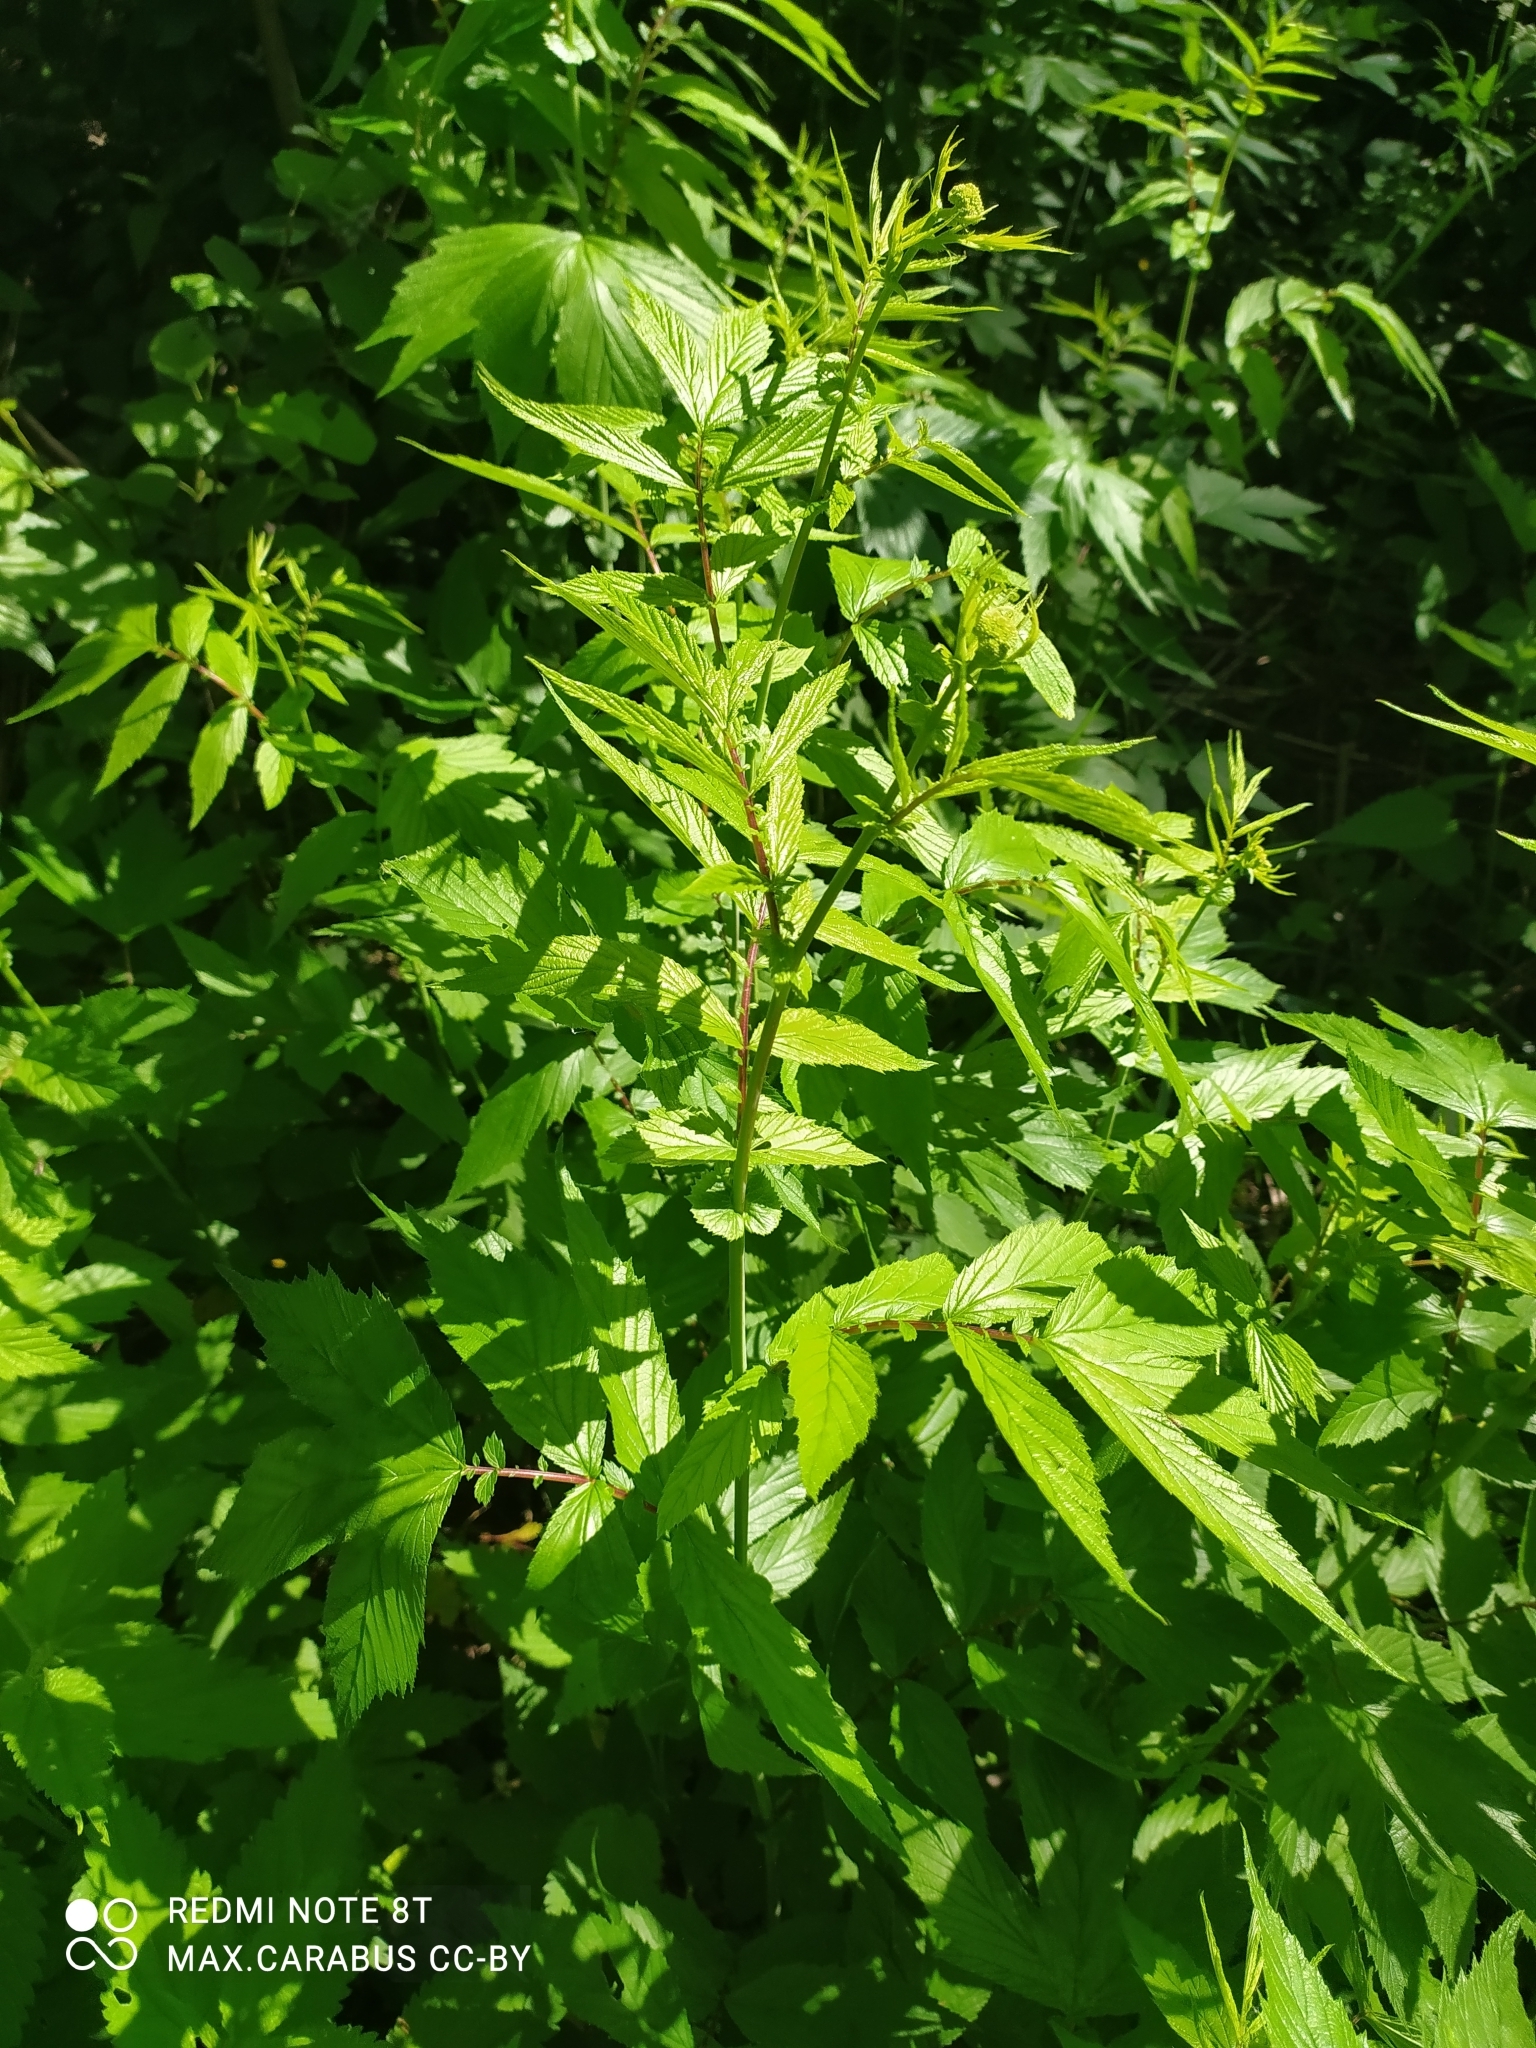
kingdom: Plantae
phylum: Tracheophyta
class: Magnoliopsida
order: Rosales
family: Rosaceae
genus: Filipendula
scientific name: Filipendula ulmaria
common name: Meadowsweet
